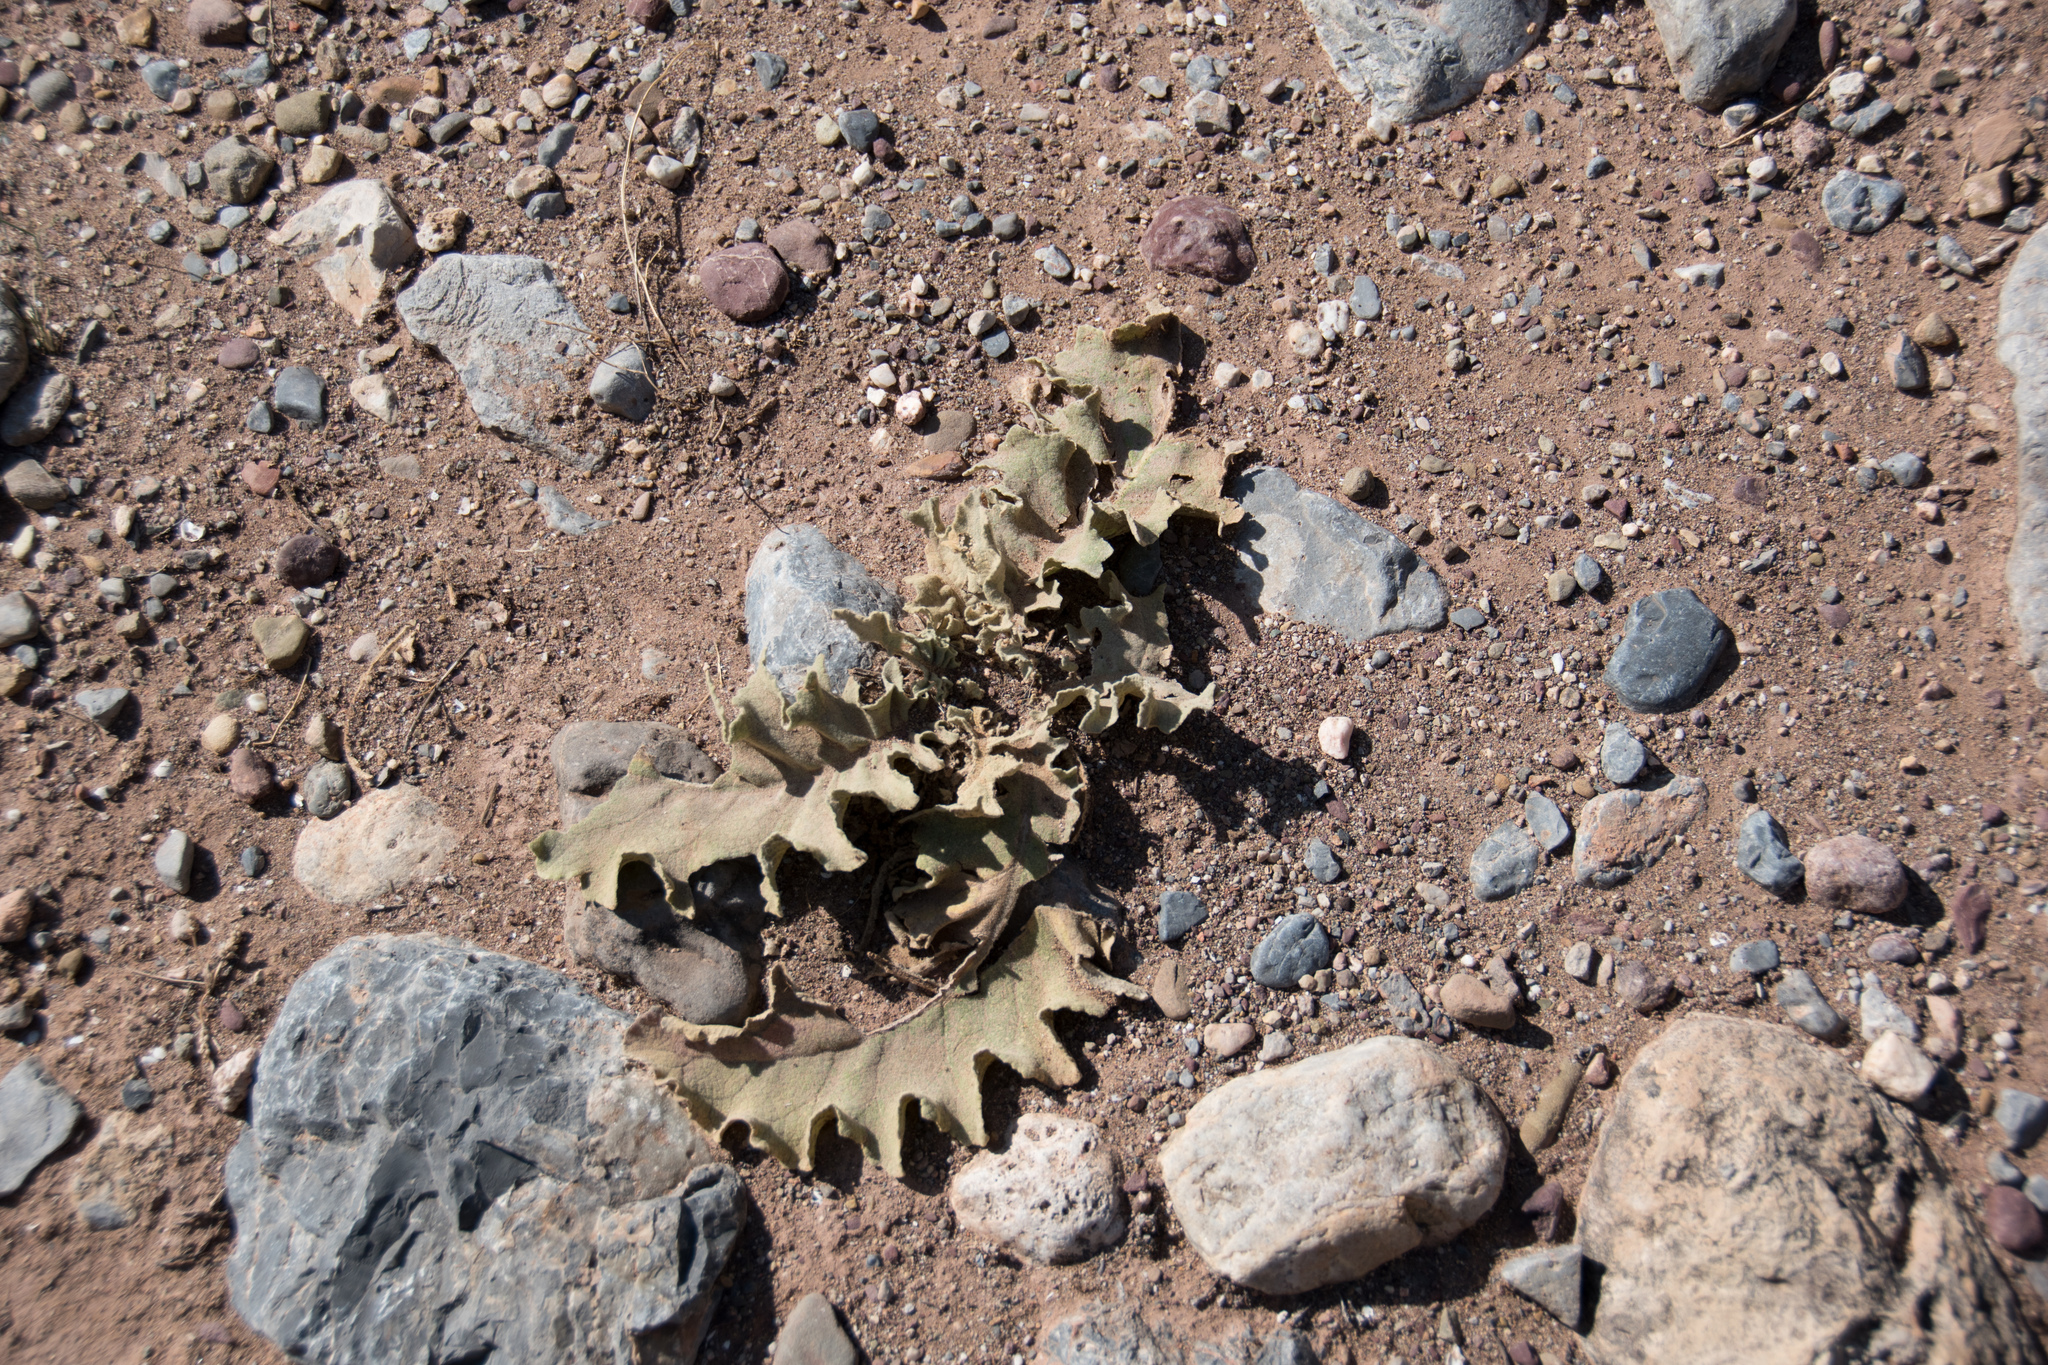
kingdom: Plantae
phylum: Tracheophyta
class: Magnoliopsida
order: Lamiales
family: Scrophulariaceae
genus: Verbascum
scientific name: Verbascum sinuatum
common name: Wavyleaf mullein
